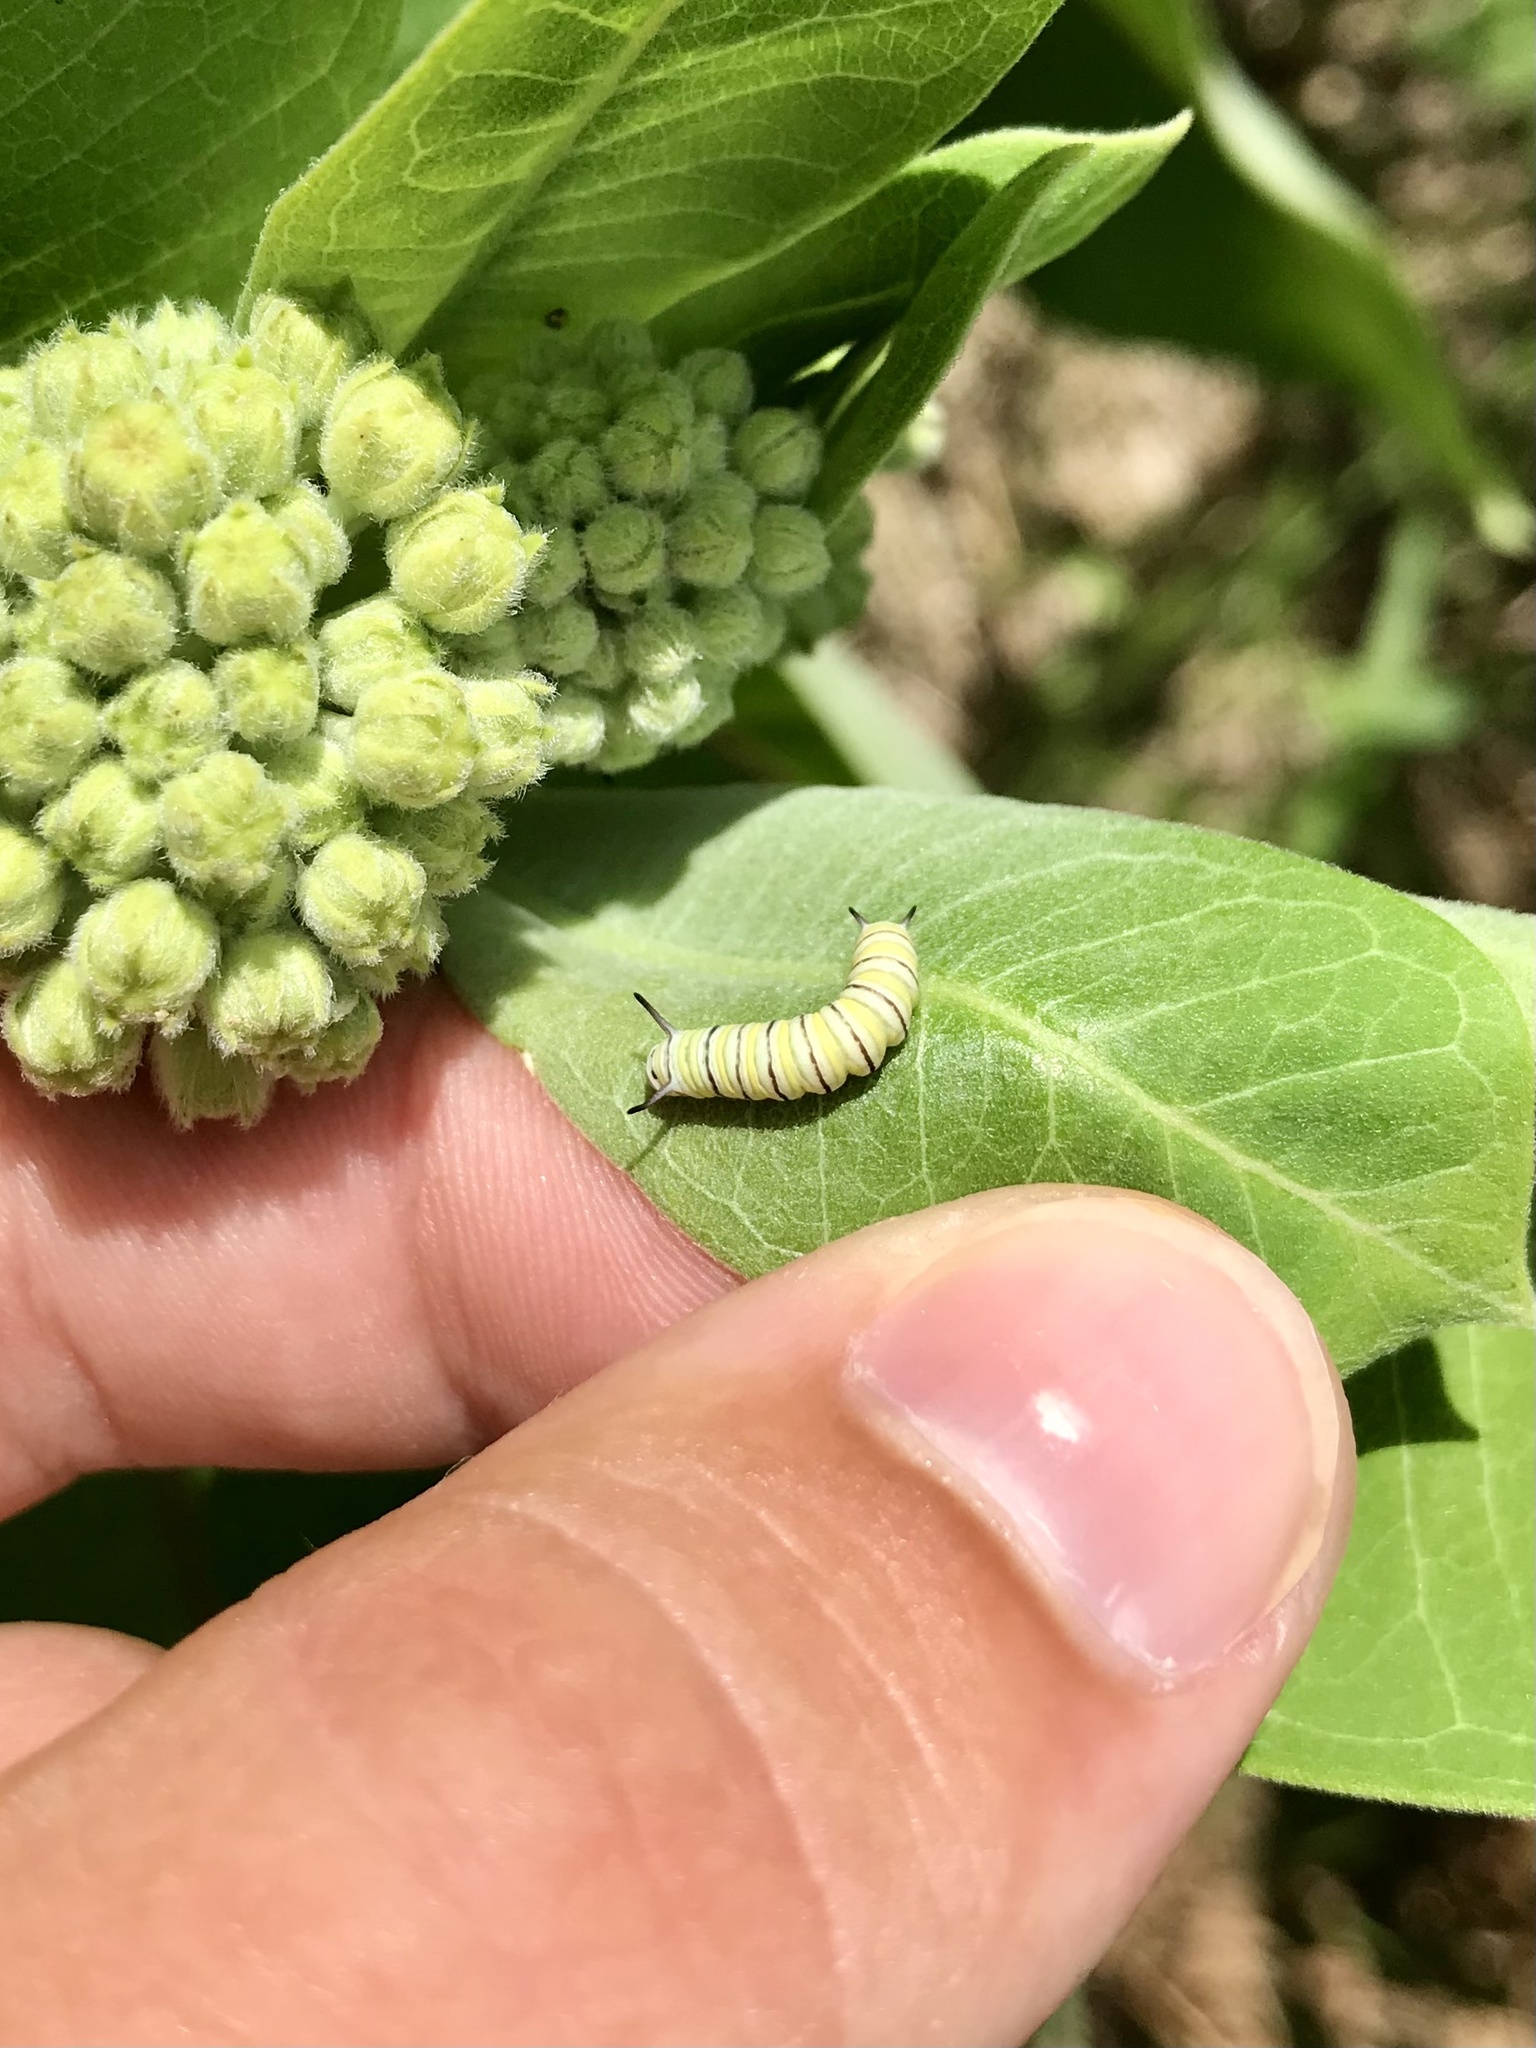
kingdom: Animalia
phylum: Arthropoda
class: Insecta
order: Lepidoptera
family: Nymphalidae
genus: Danaus
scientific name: Danaus plexippus
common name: Monarch
